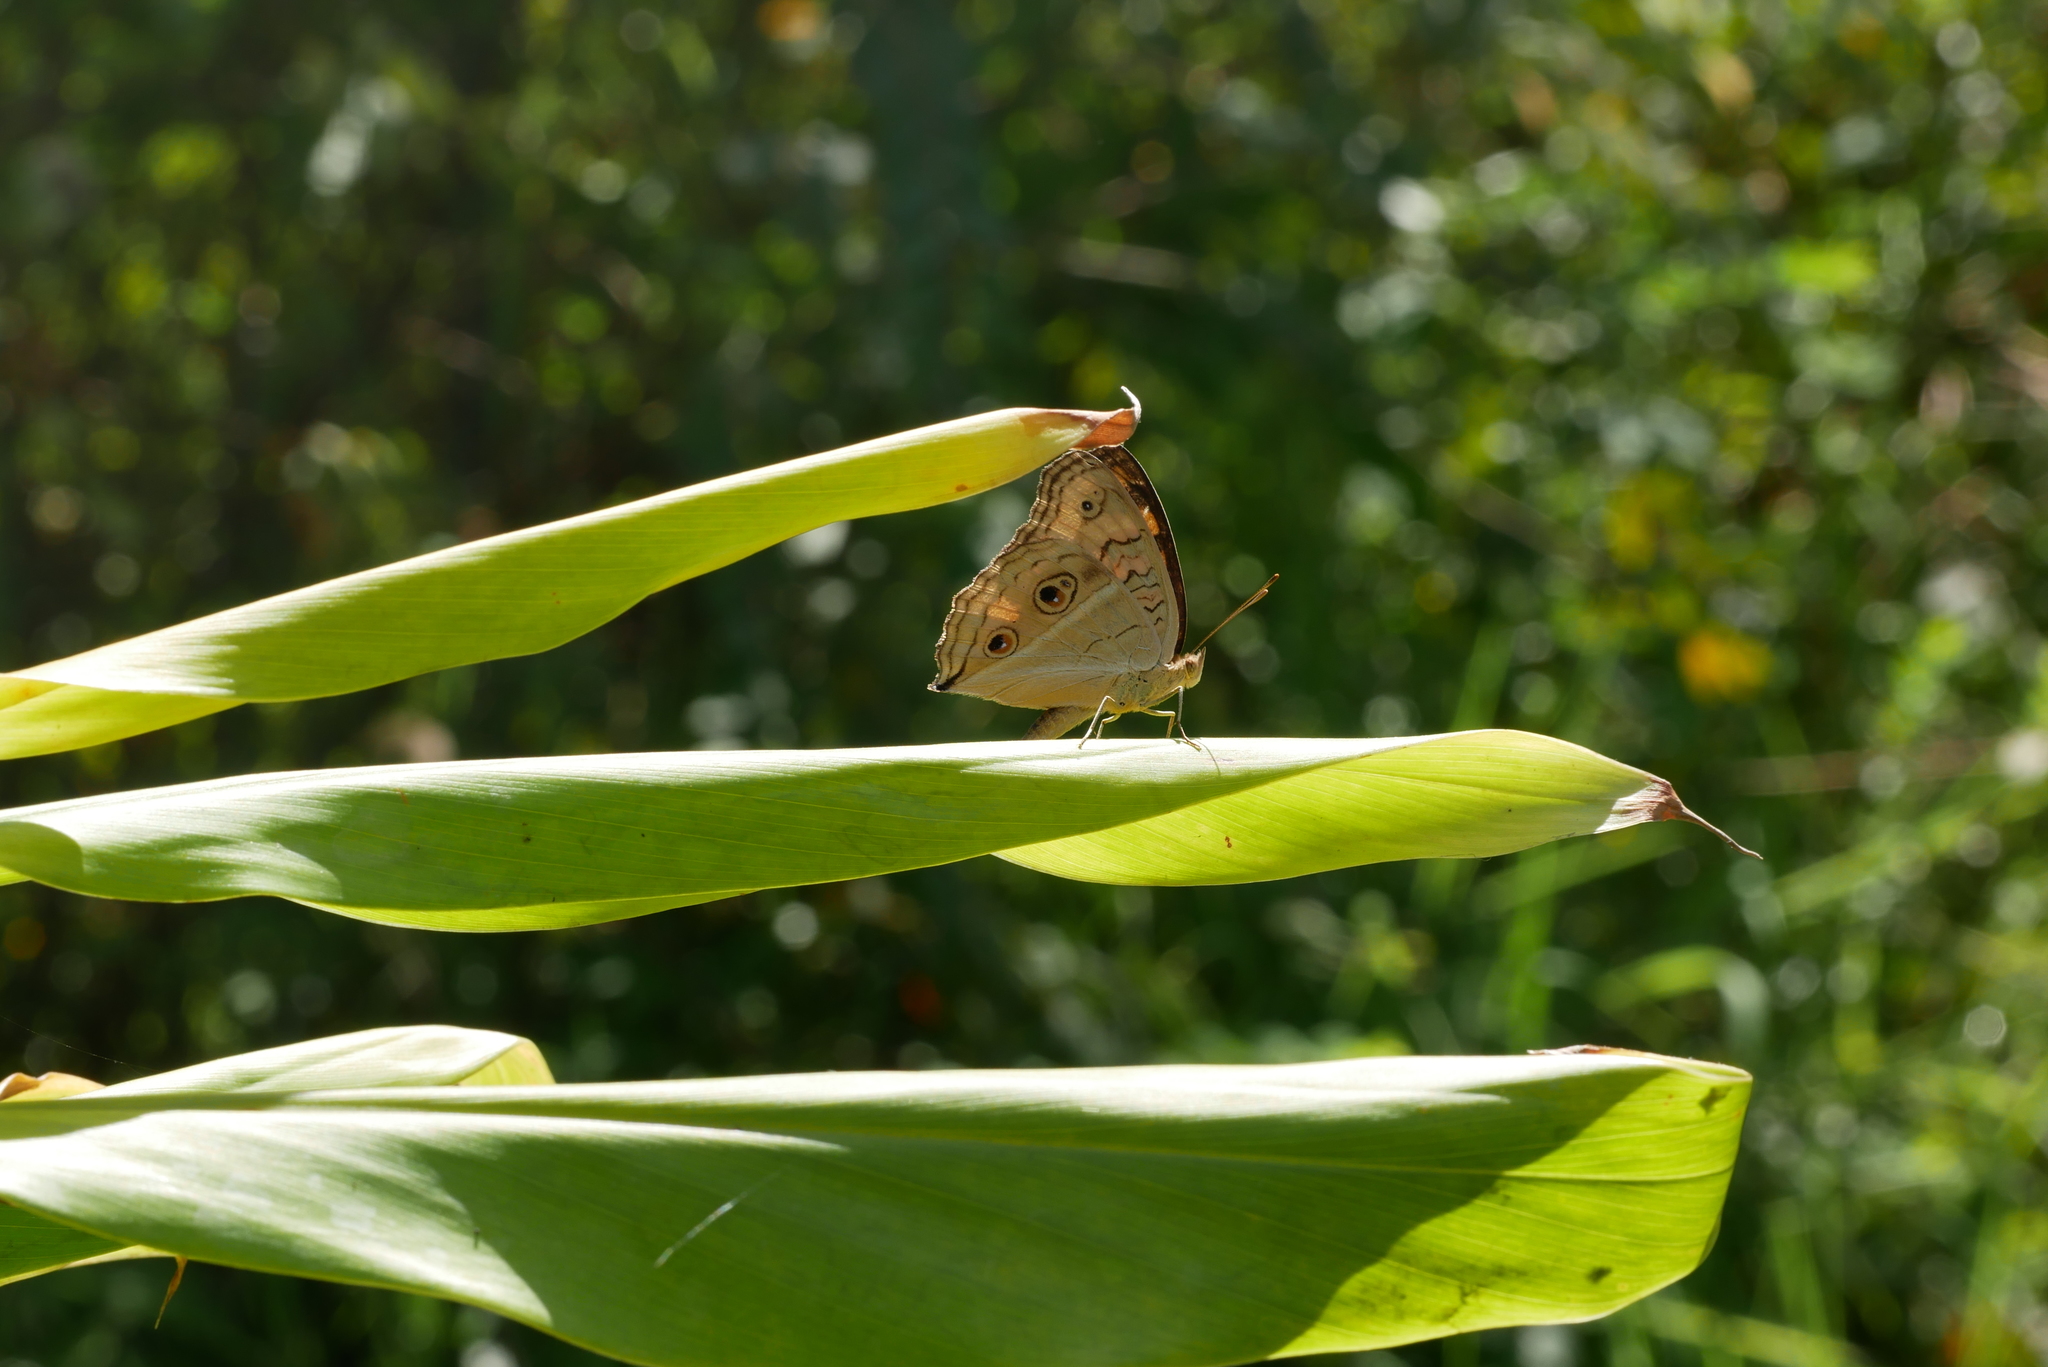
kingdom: Animalia
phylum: Arthropoda
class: Insecta
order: Lepidoptera
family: Nymphalidae
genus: Junonia
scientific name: Junonia almana
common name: Peacock pansy
